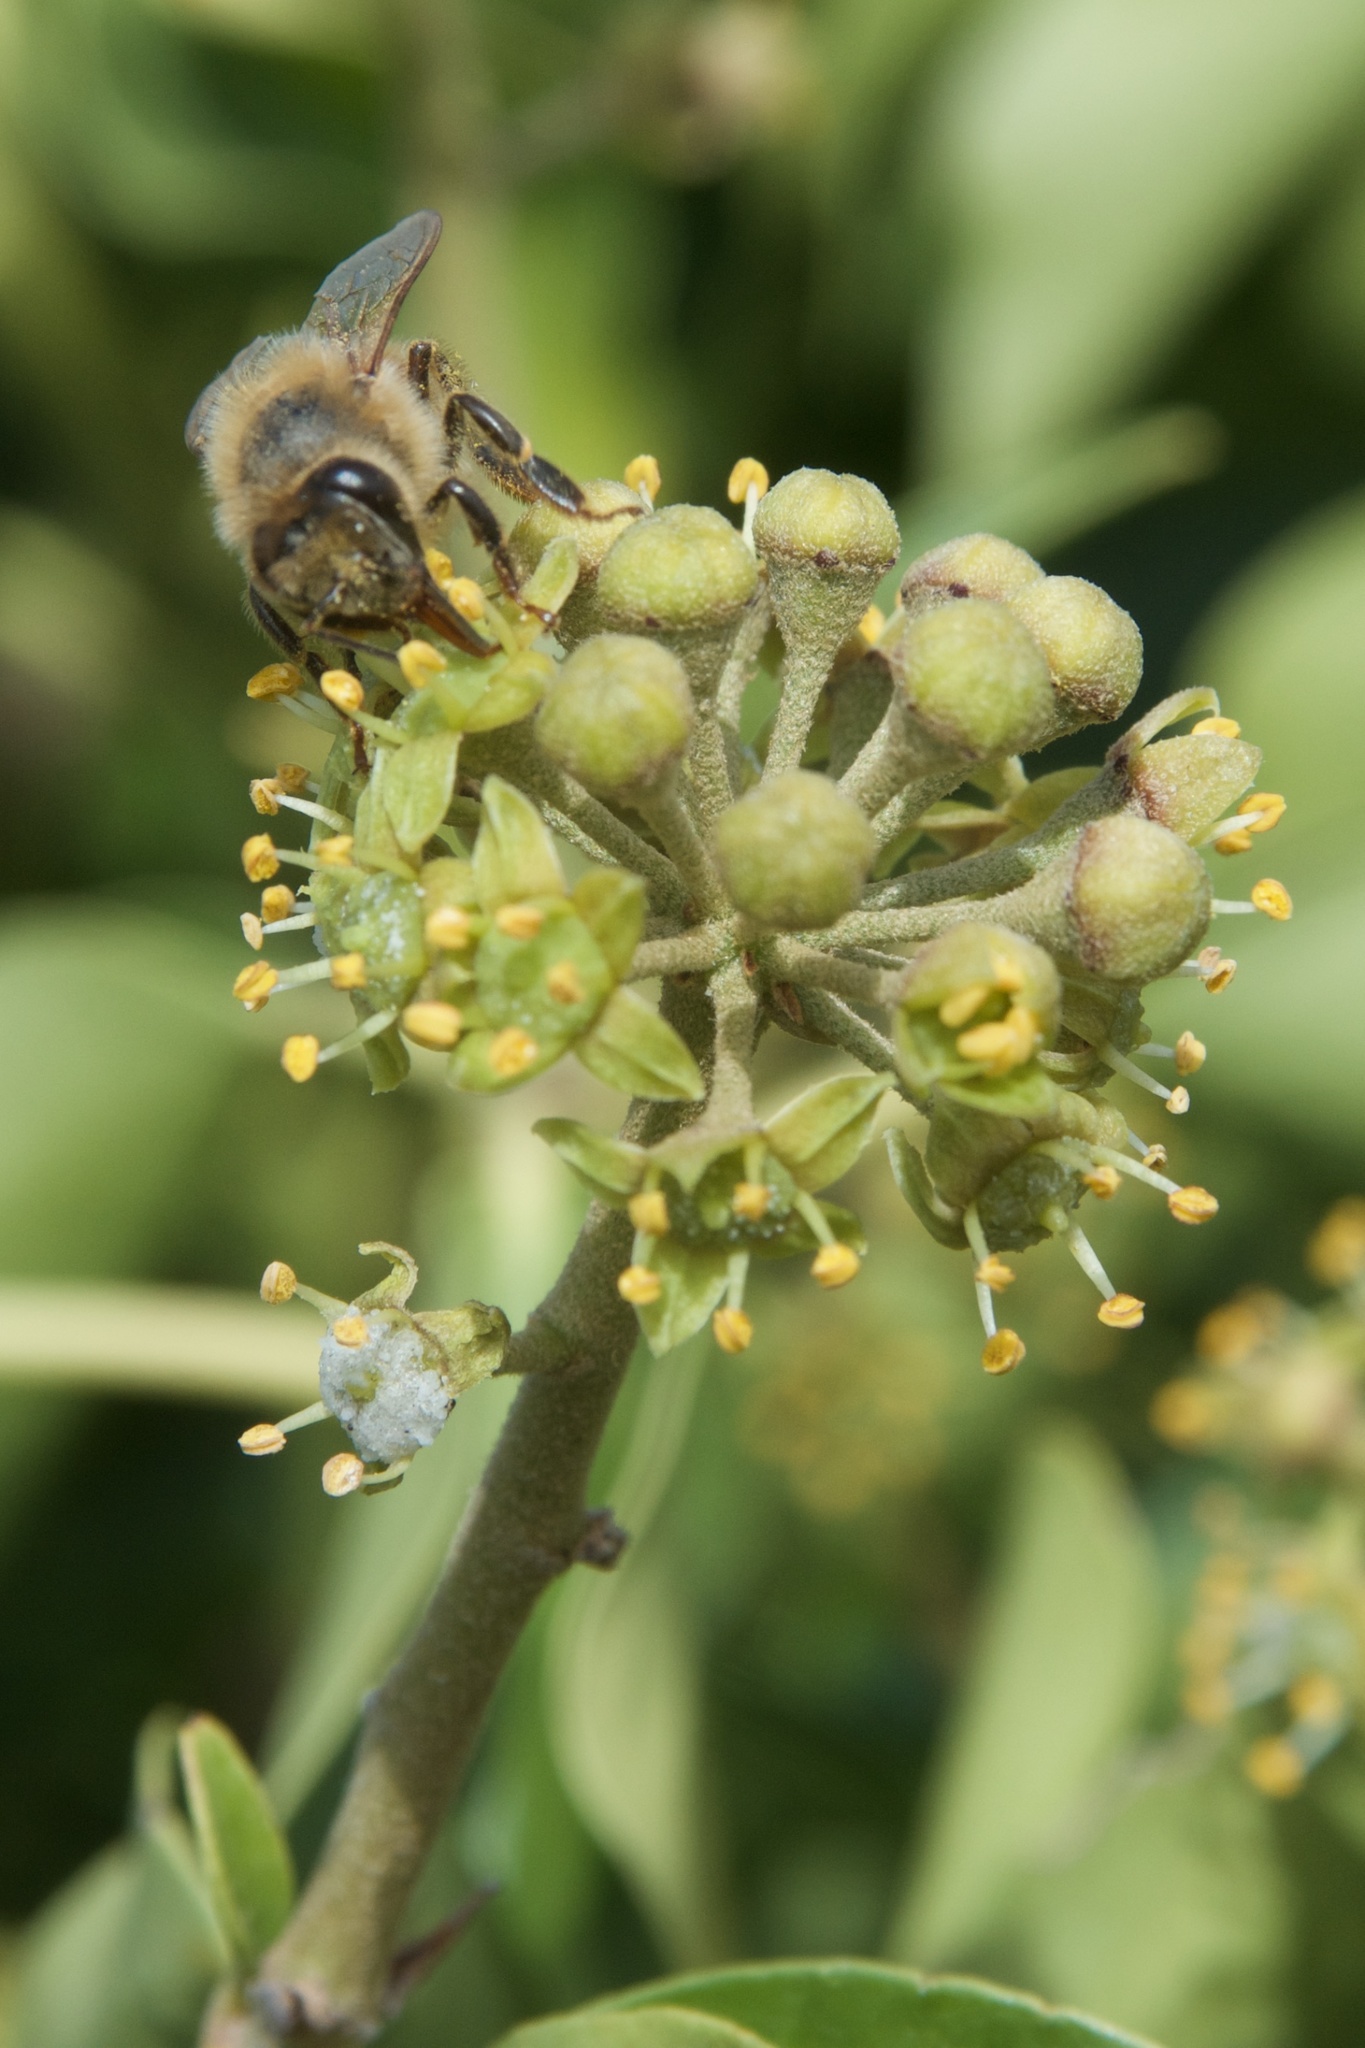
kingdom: Animalia
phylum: Arthropoda
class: Insecta
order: Hymenoptera
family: Apidae
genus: Apis
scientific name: Apis mellifera
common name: Honey bee
